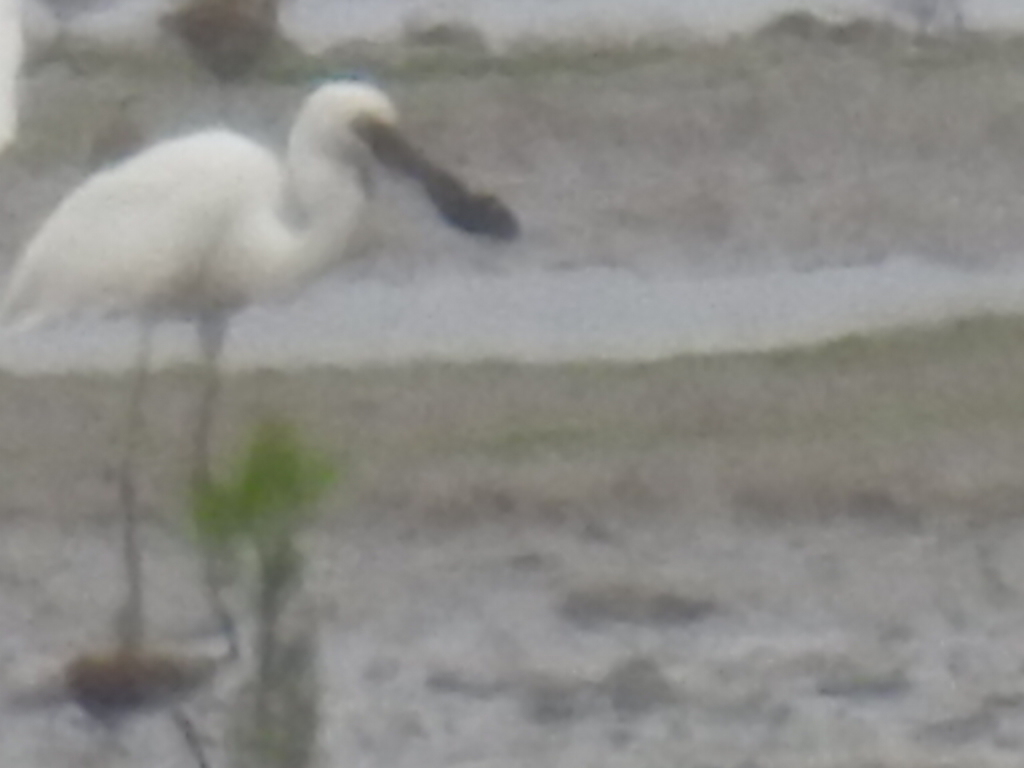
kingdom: Animalia
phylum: Chordata
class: Aves
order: Pelecaniformes
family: Threskiornithidae
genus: Platalea
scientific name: Platalea minor
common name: Black-faced spoonbill
